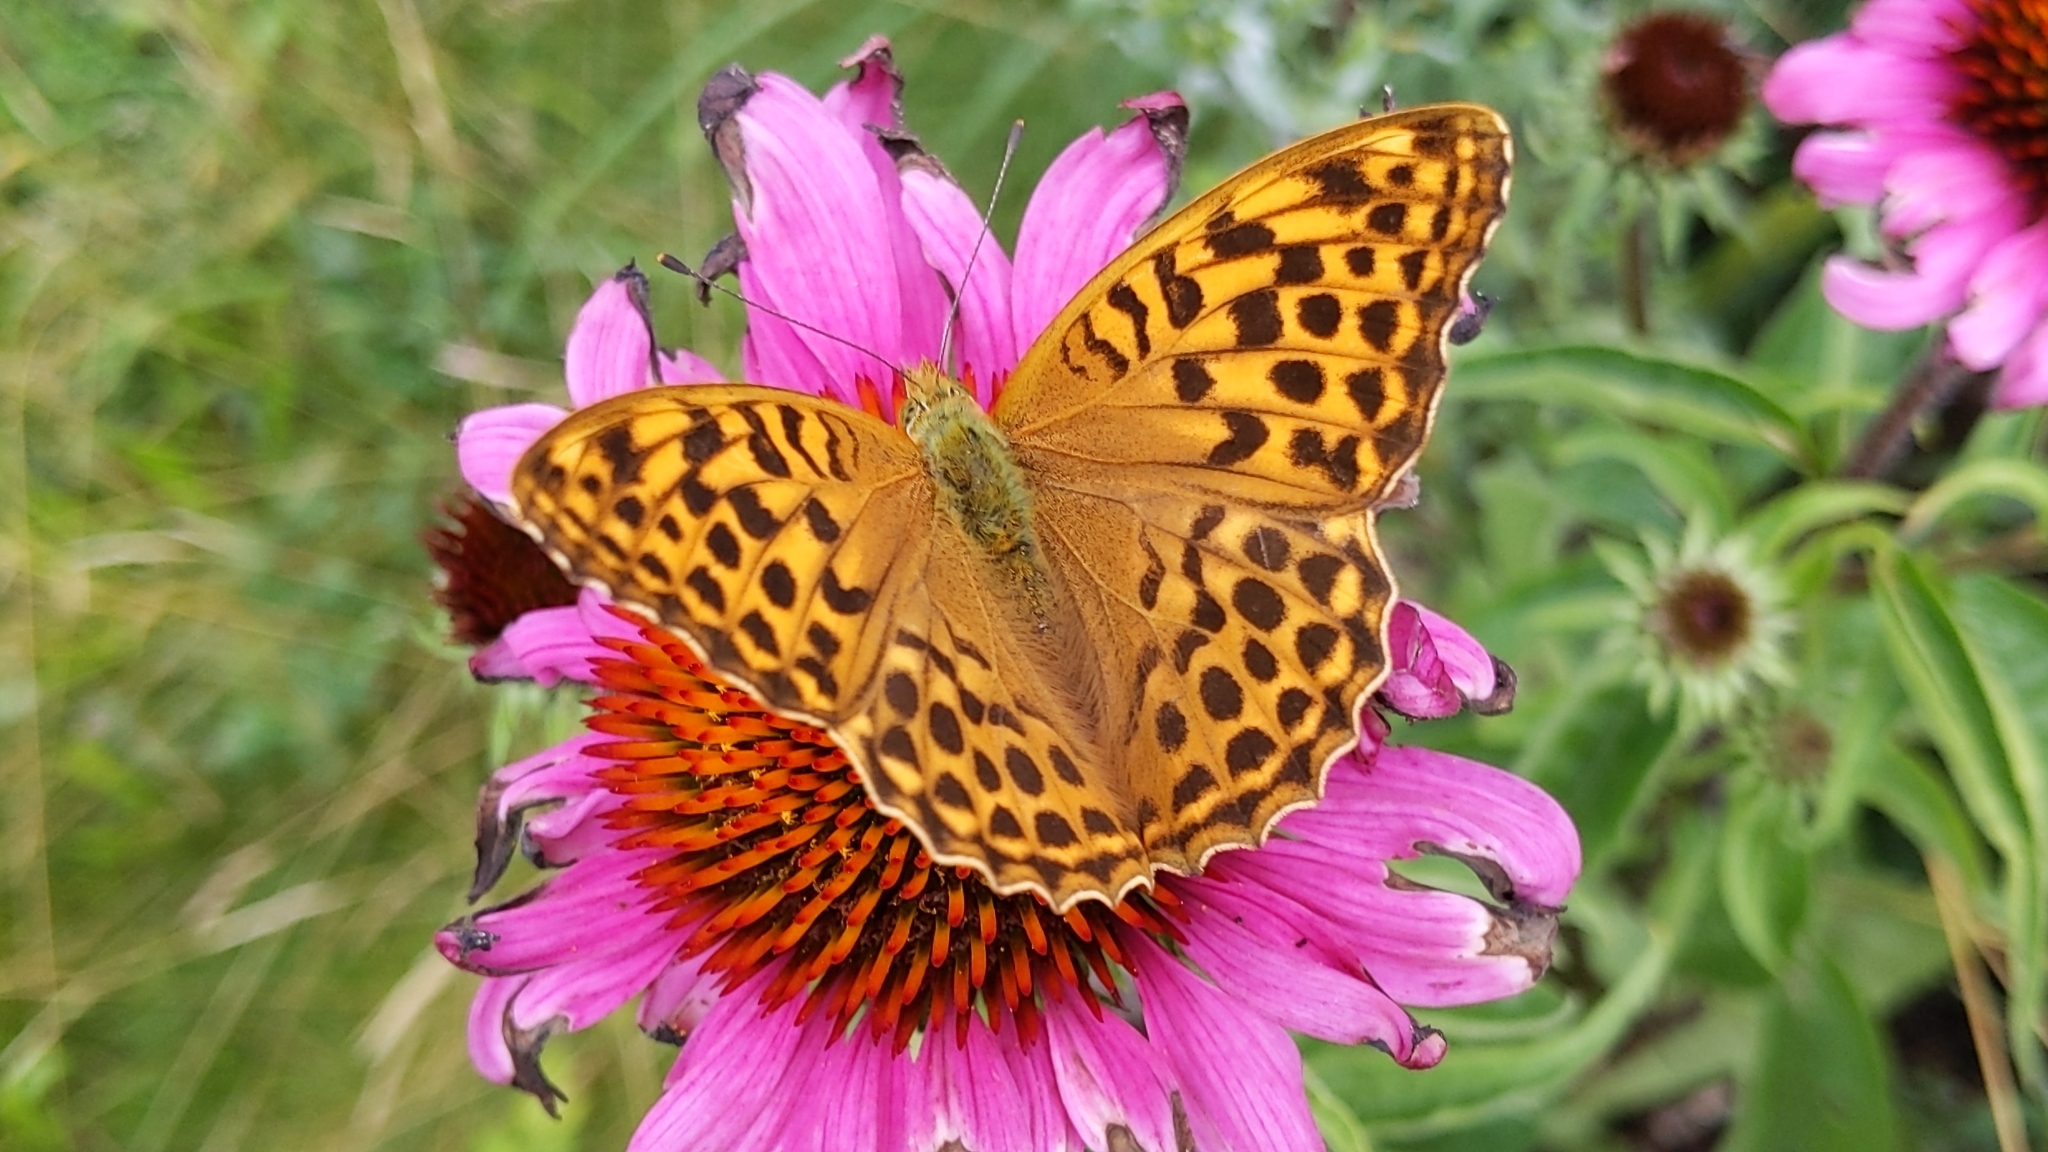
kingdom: Animalia
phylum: Arthropoda
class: Insecta
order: Lepidoptera
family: Nymphalidae
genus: Argynnis
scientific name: Argynnis paphia
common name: Silver-washed fritillary
